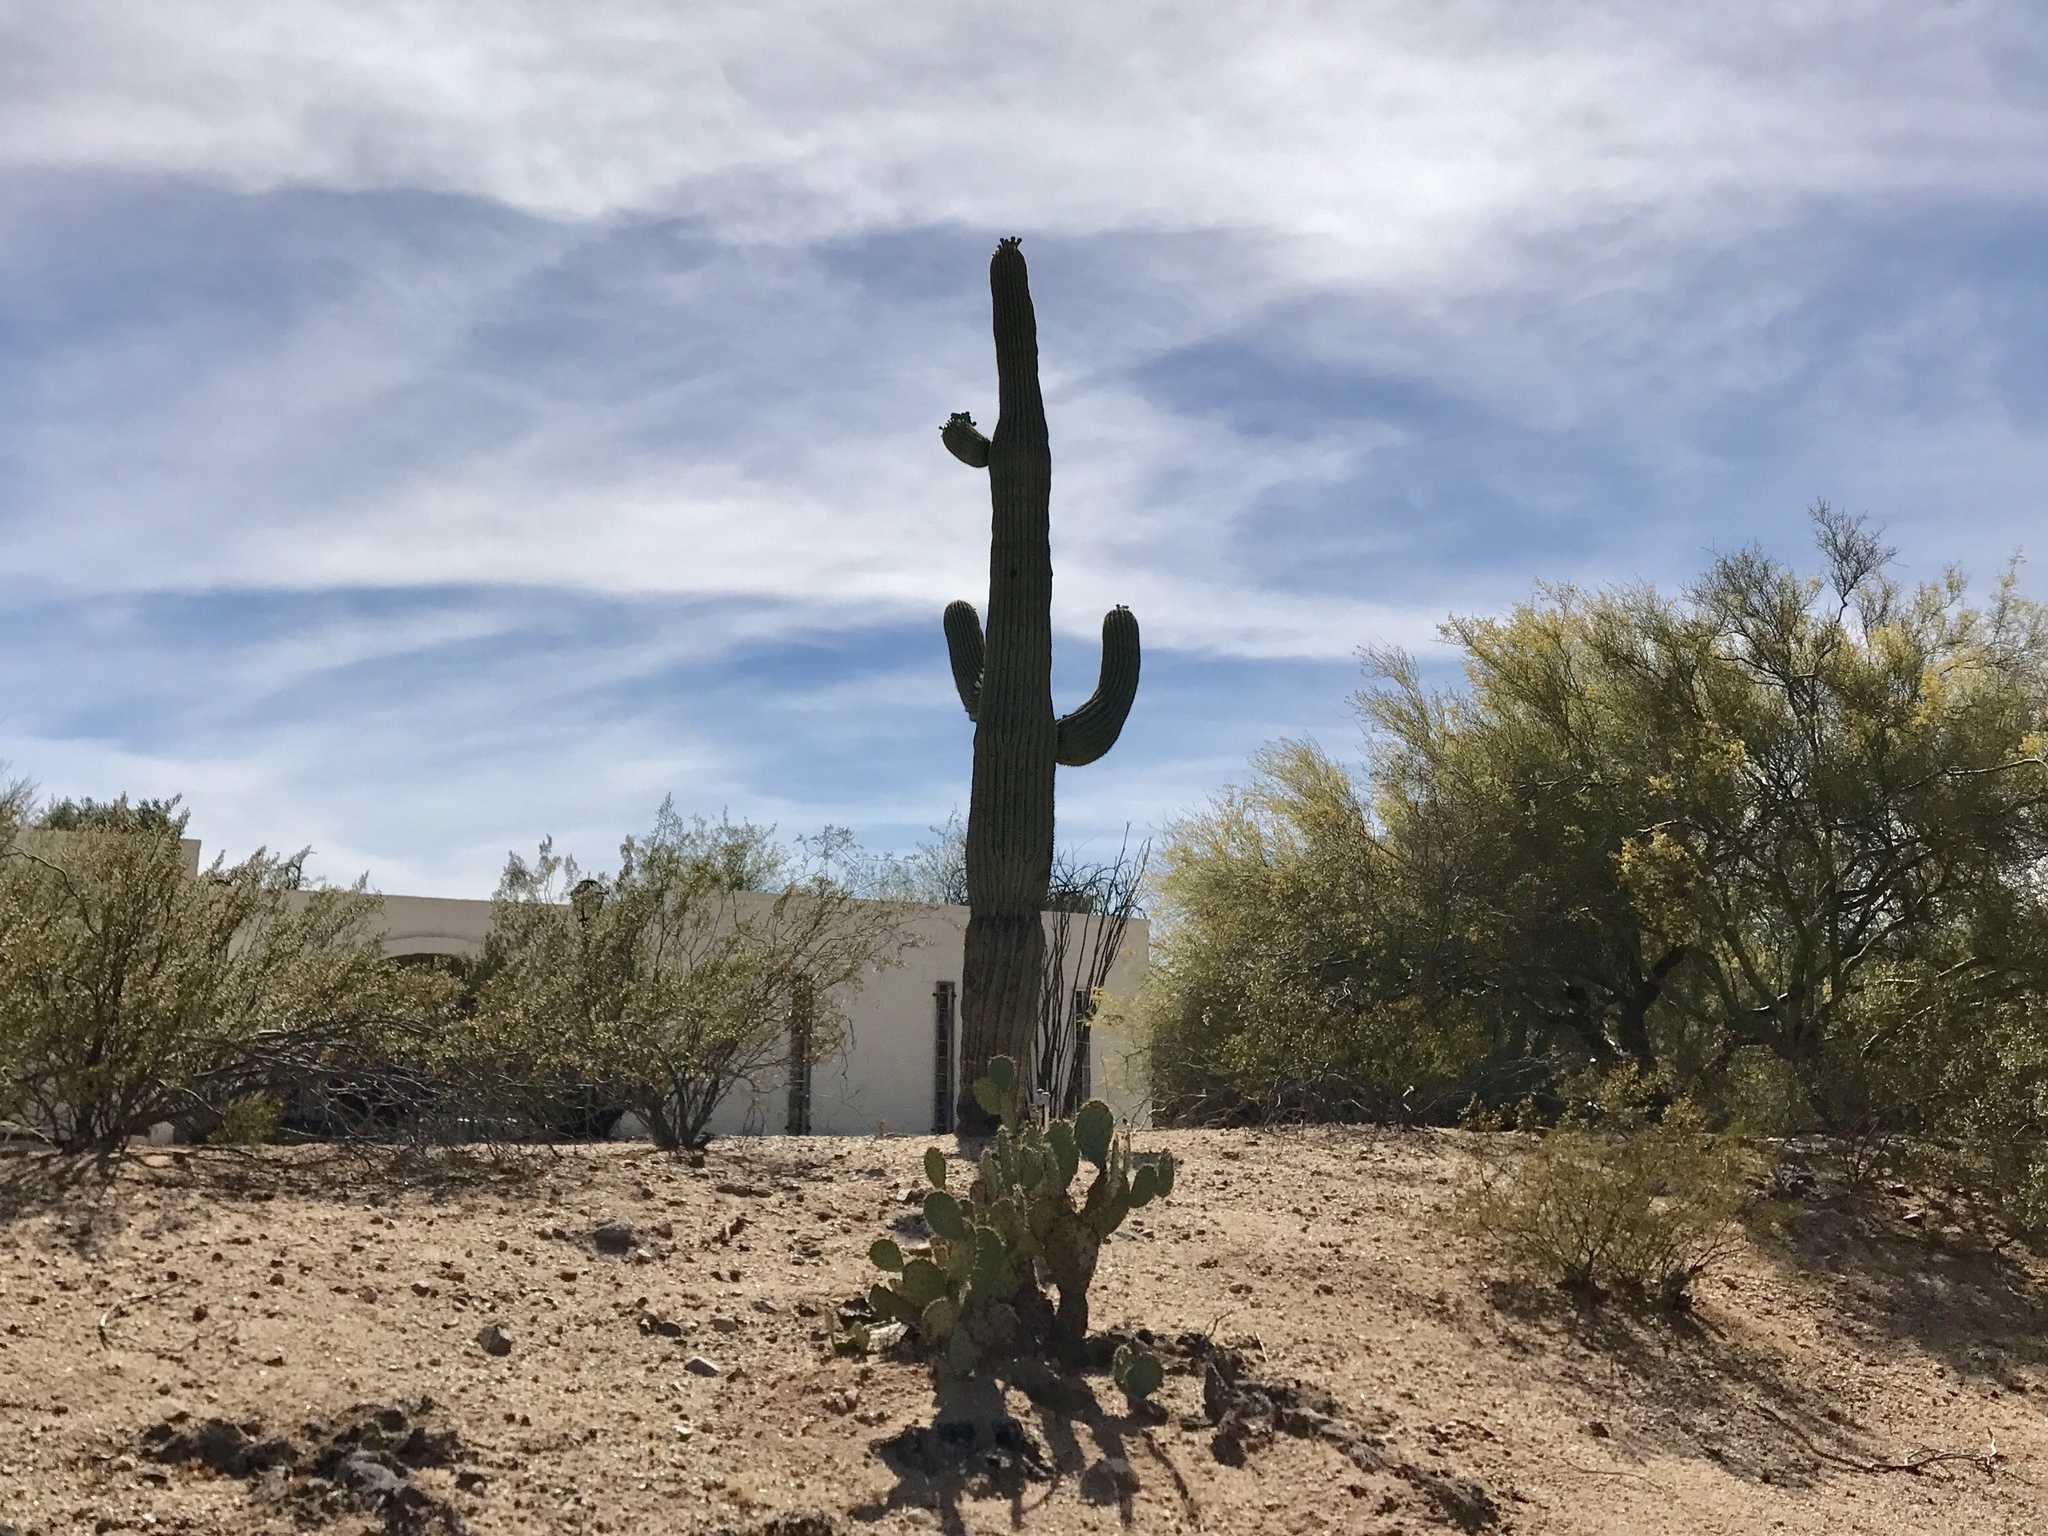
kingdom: Plantae
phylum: Tracheophyta
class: Magnoliopsida
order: Caryophyllales
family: Cactaceae
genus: Carnegiea
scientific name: Carnegiea gigantea
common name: Saguaro
